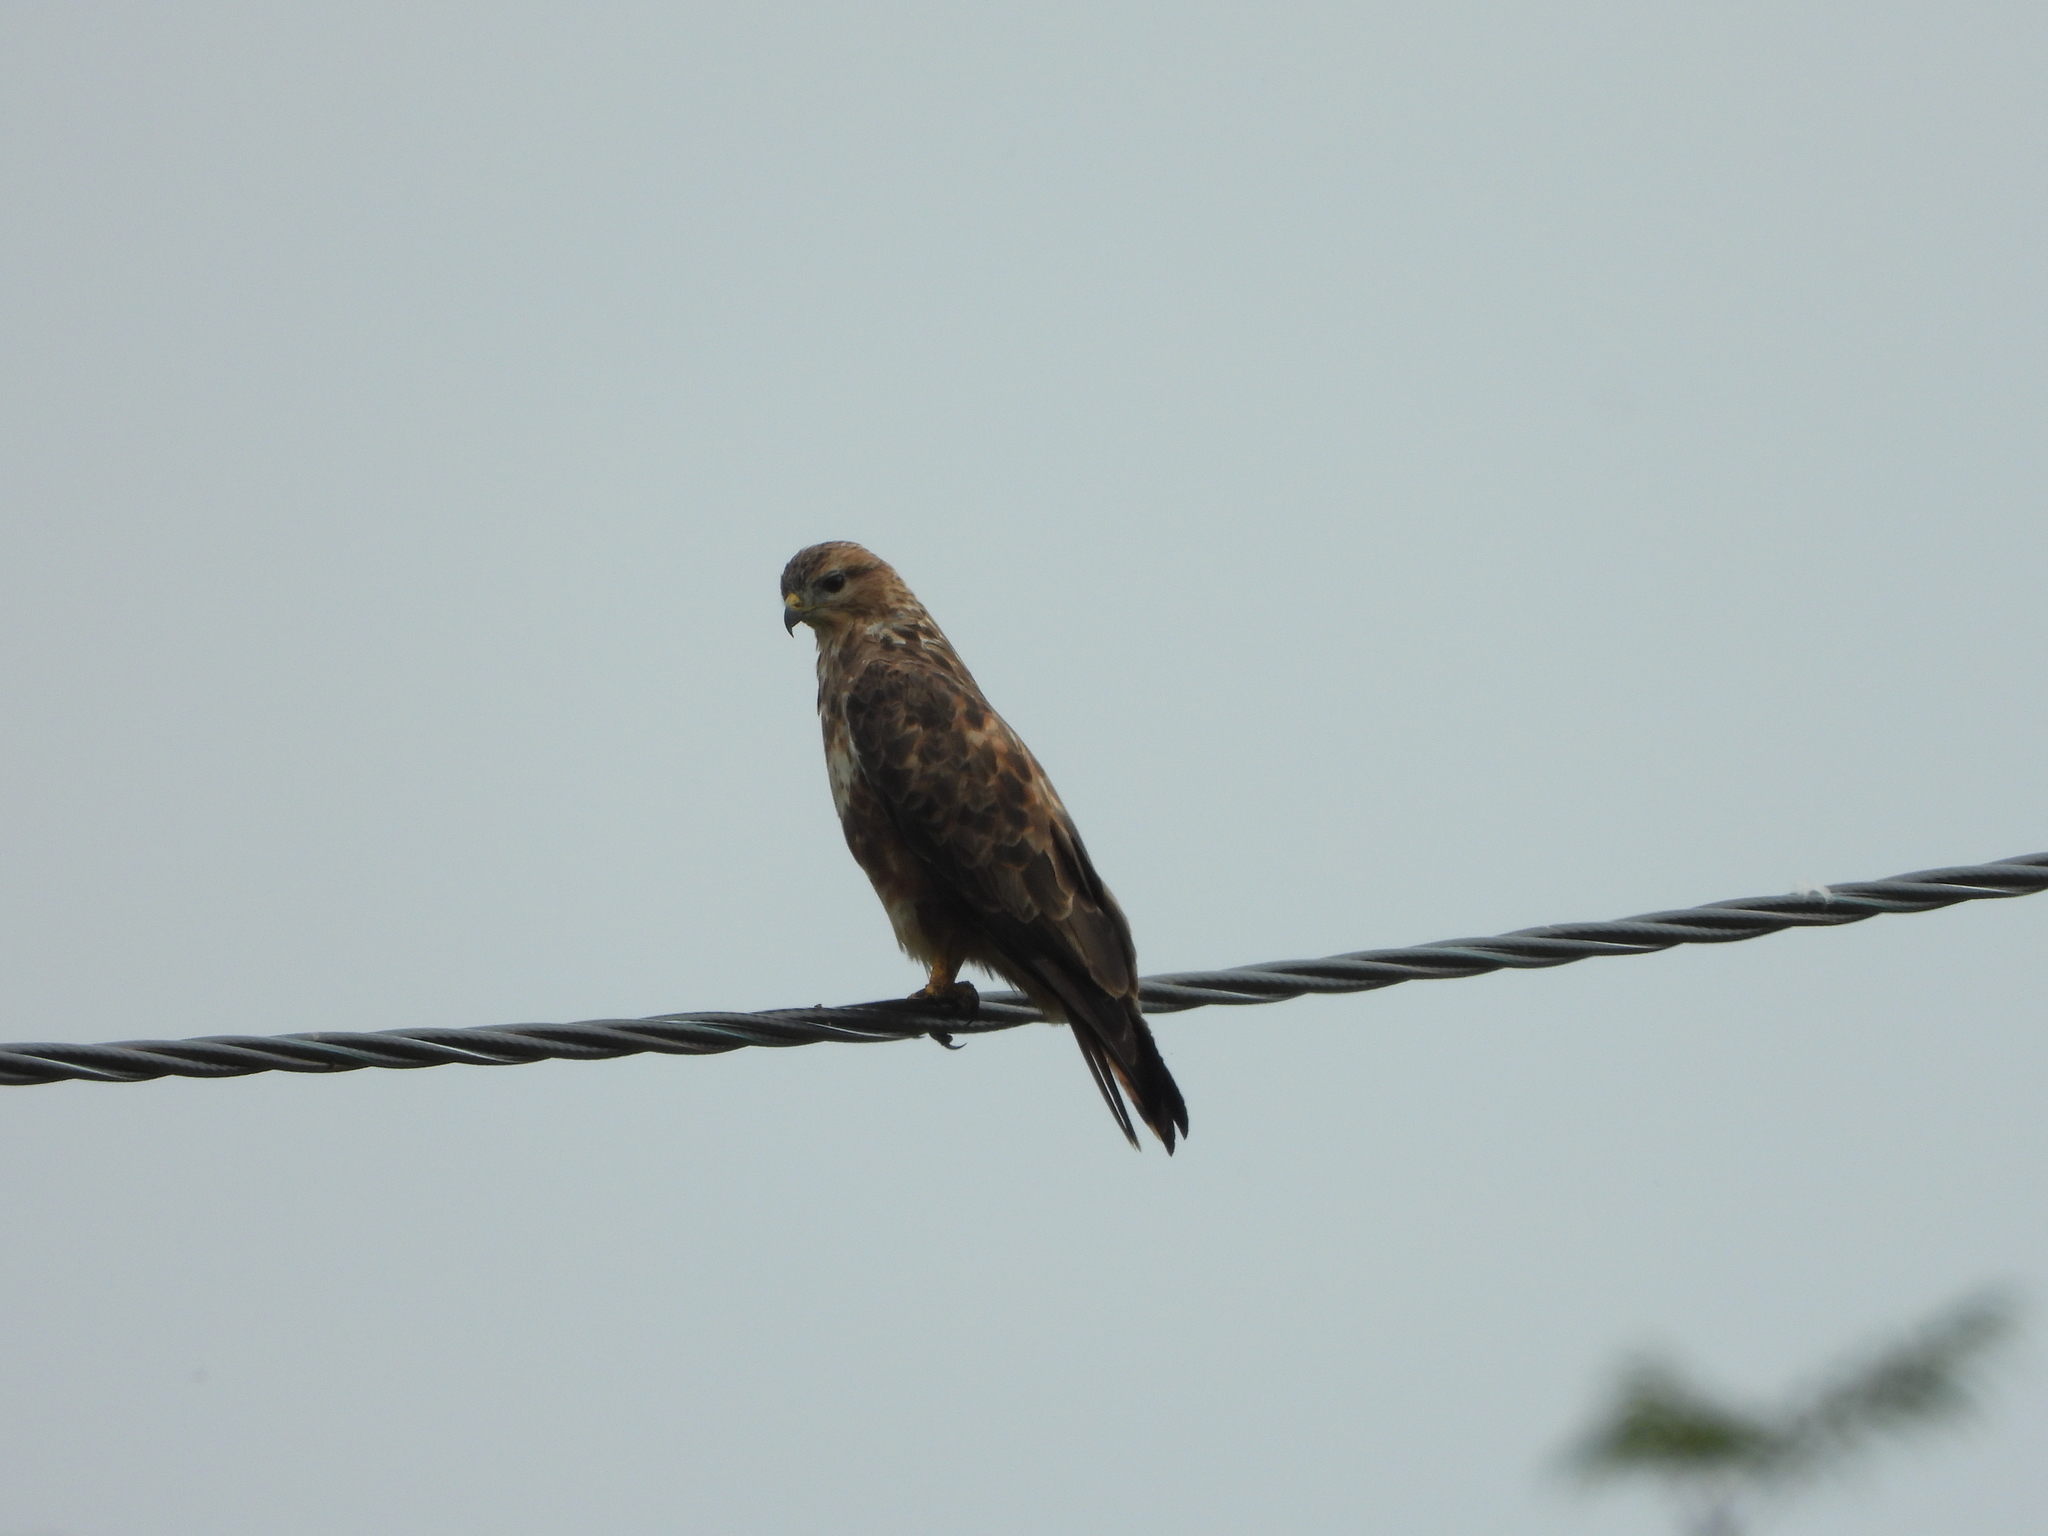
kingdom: Animalia
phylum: Chordata
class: Aves
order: Accipitriformes
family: Accipitridae
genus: Buteo
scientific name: Buteo buteo
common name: Common buzzard
